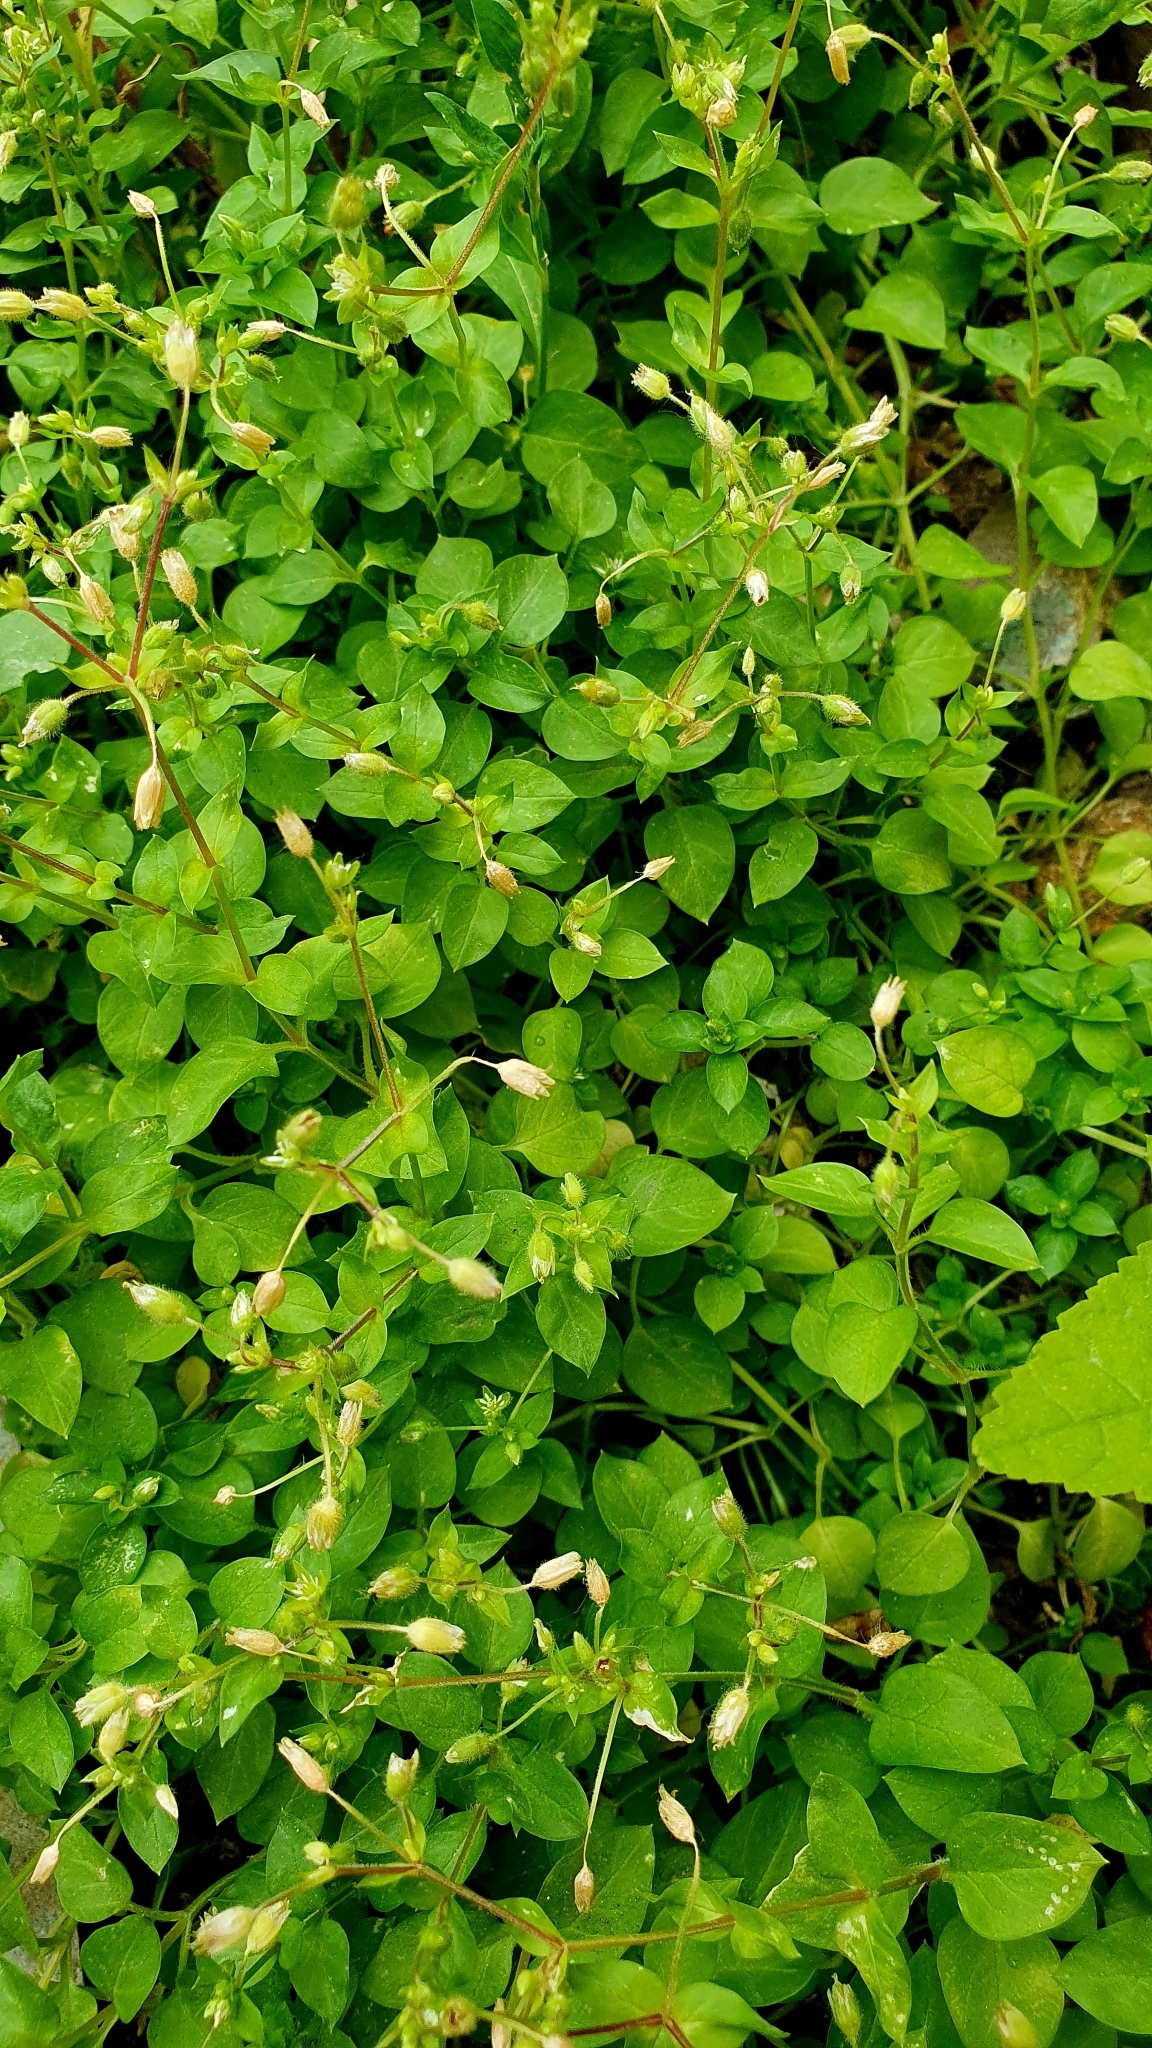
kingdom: Plantae
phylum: Tracheophyta
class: Magnoliopsida
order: Caryophyllales
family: Caryophyllaceae
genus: Stellaria
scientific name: Stellaria media
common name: Common chickweed
